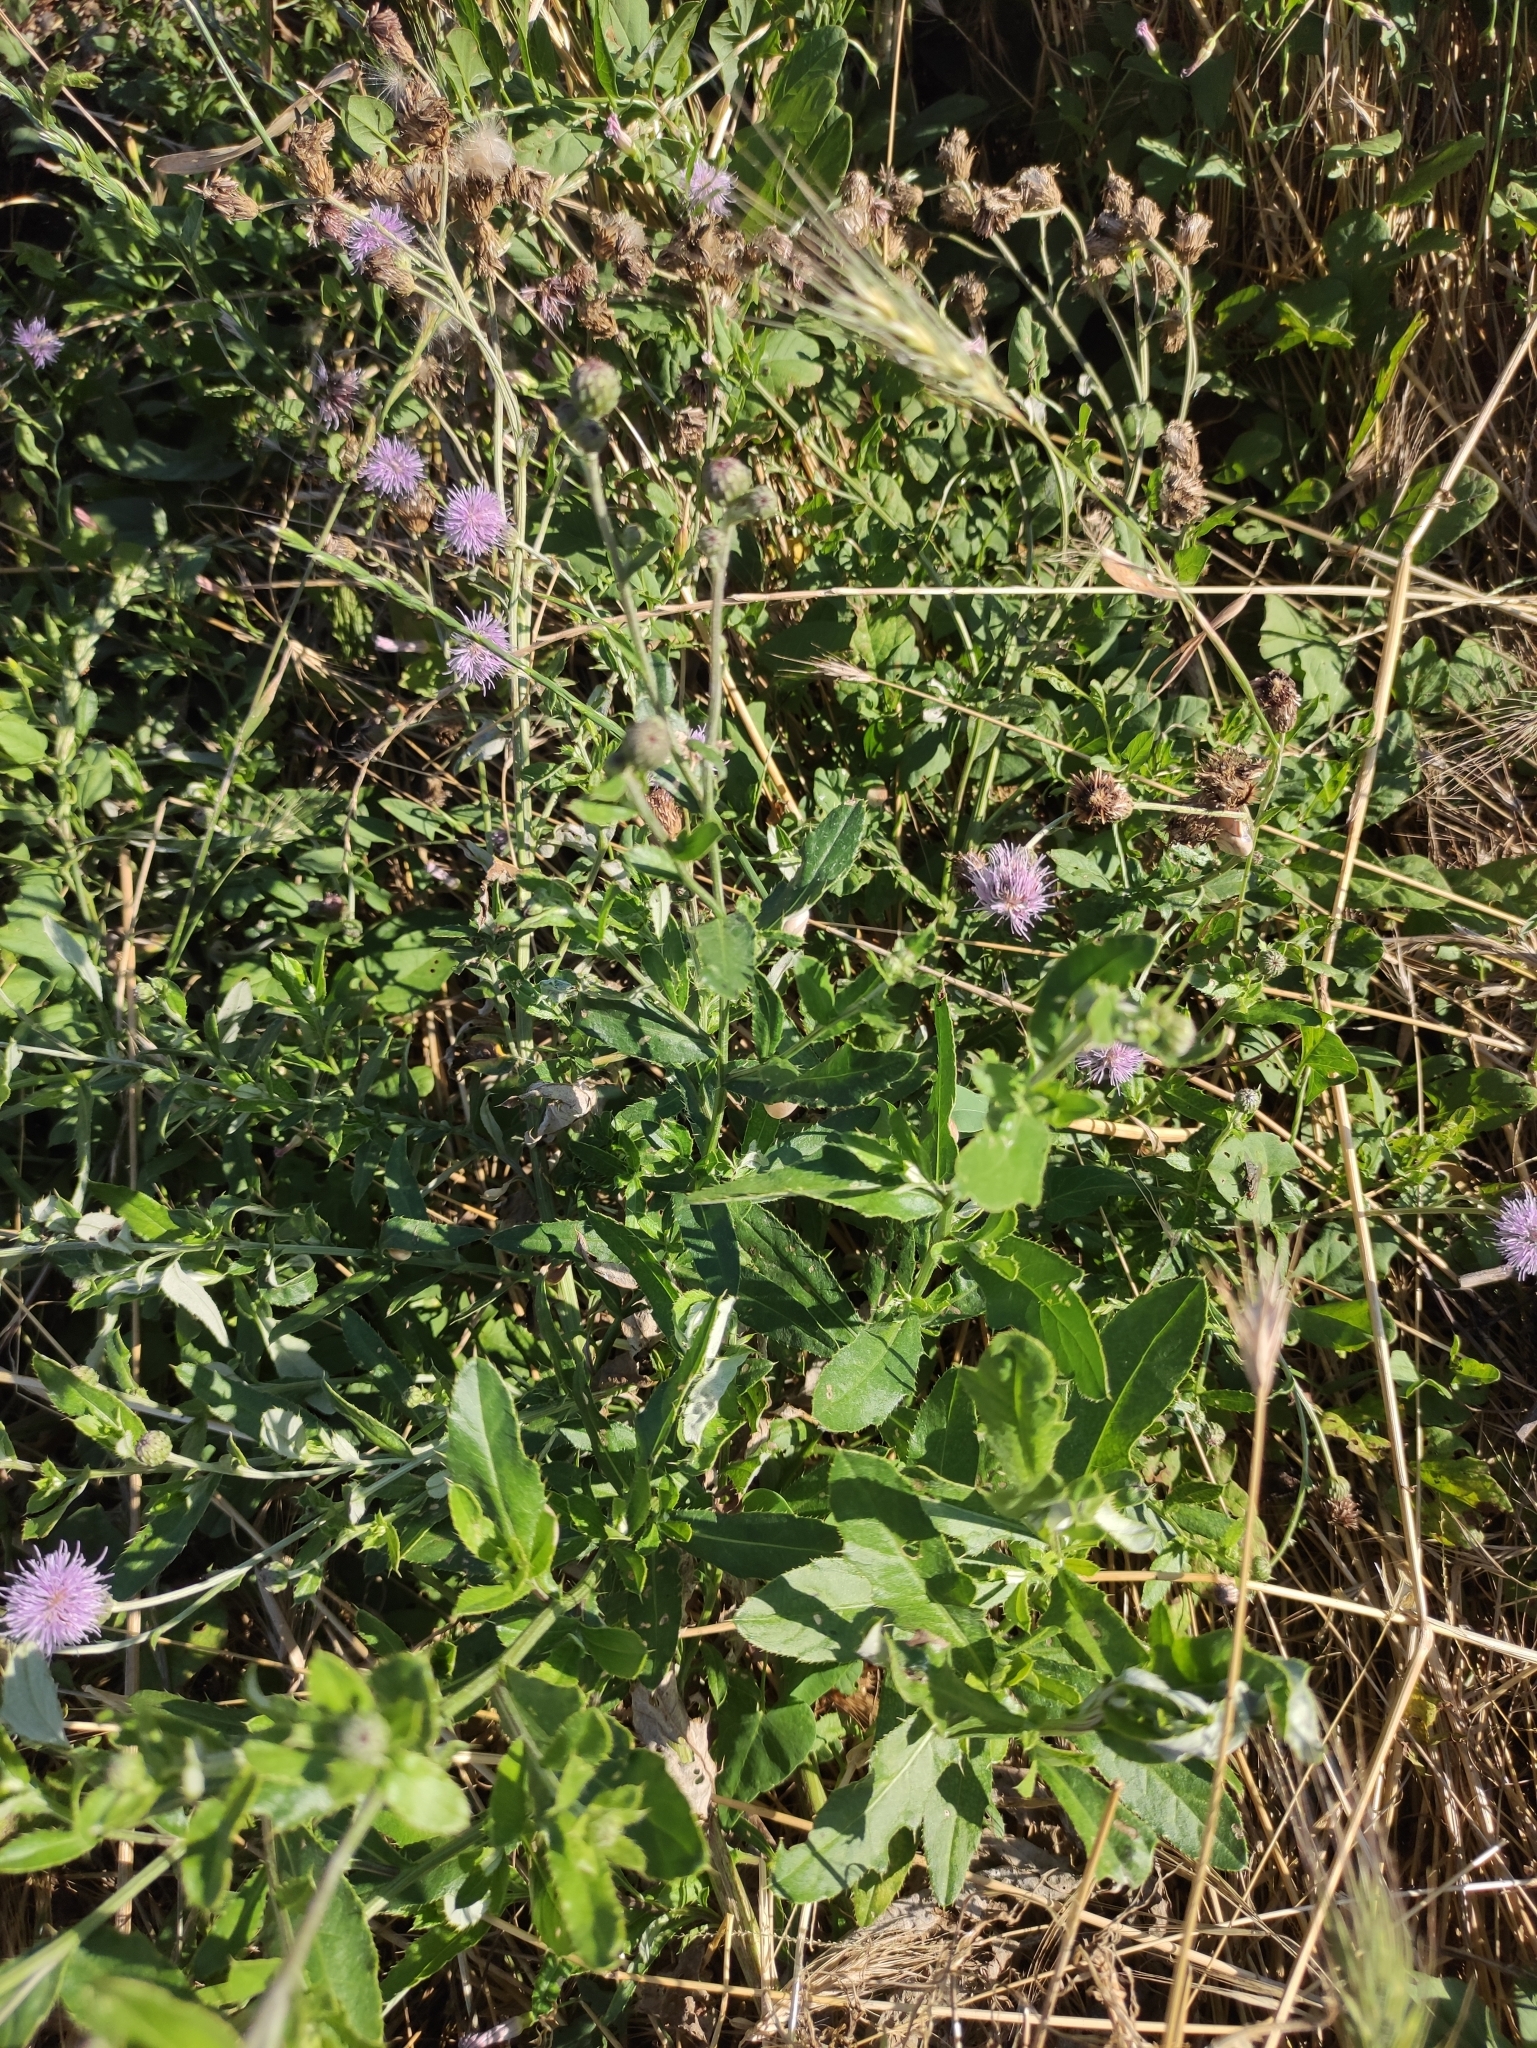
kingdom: Plantae
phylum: Tracheophyta
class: Magnoliopsida
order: Asterales
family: Asteraceae
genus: Cirsium
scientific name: Cirsium arvense
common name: Creeping thistle
